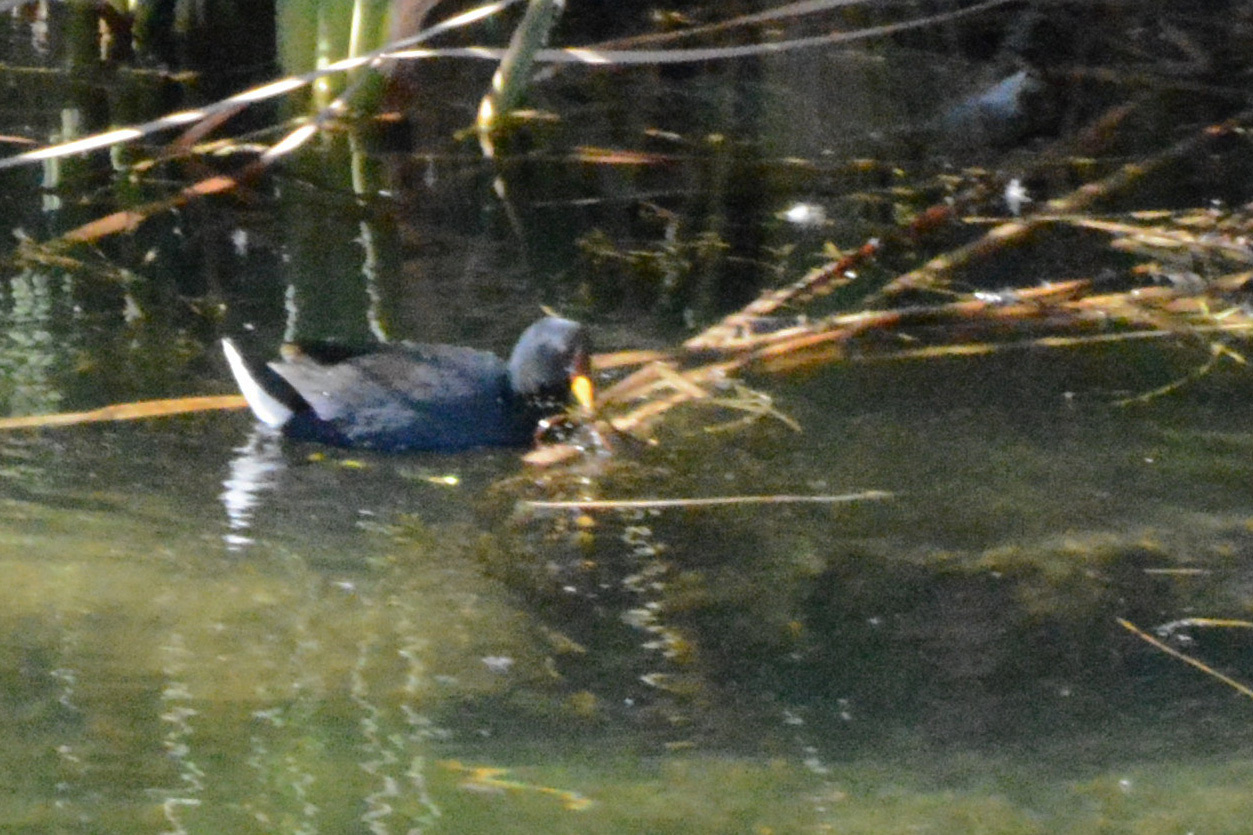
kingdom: Animalia
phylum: Chordata
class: Aves
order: Gruiformes
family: Rallidae
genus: Fulica
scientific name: Fulica rufifrons
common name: Red-fronted coot
